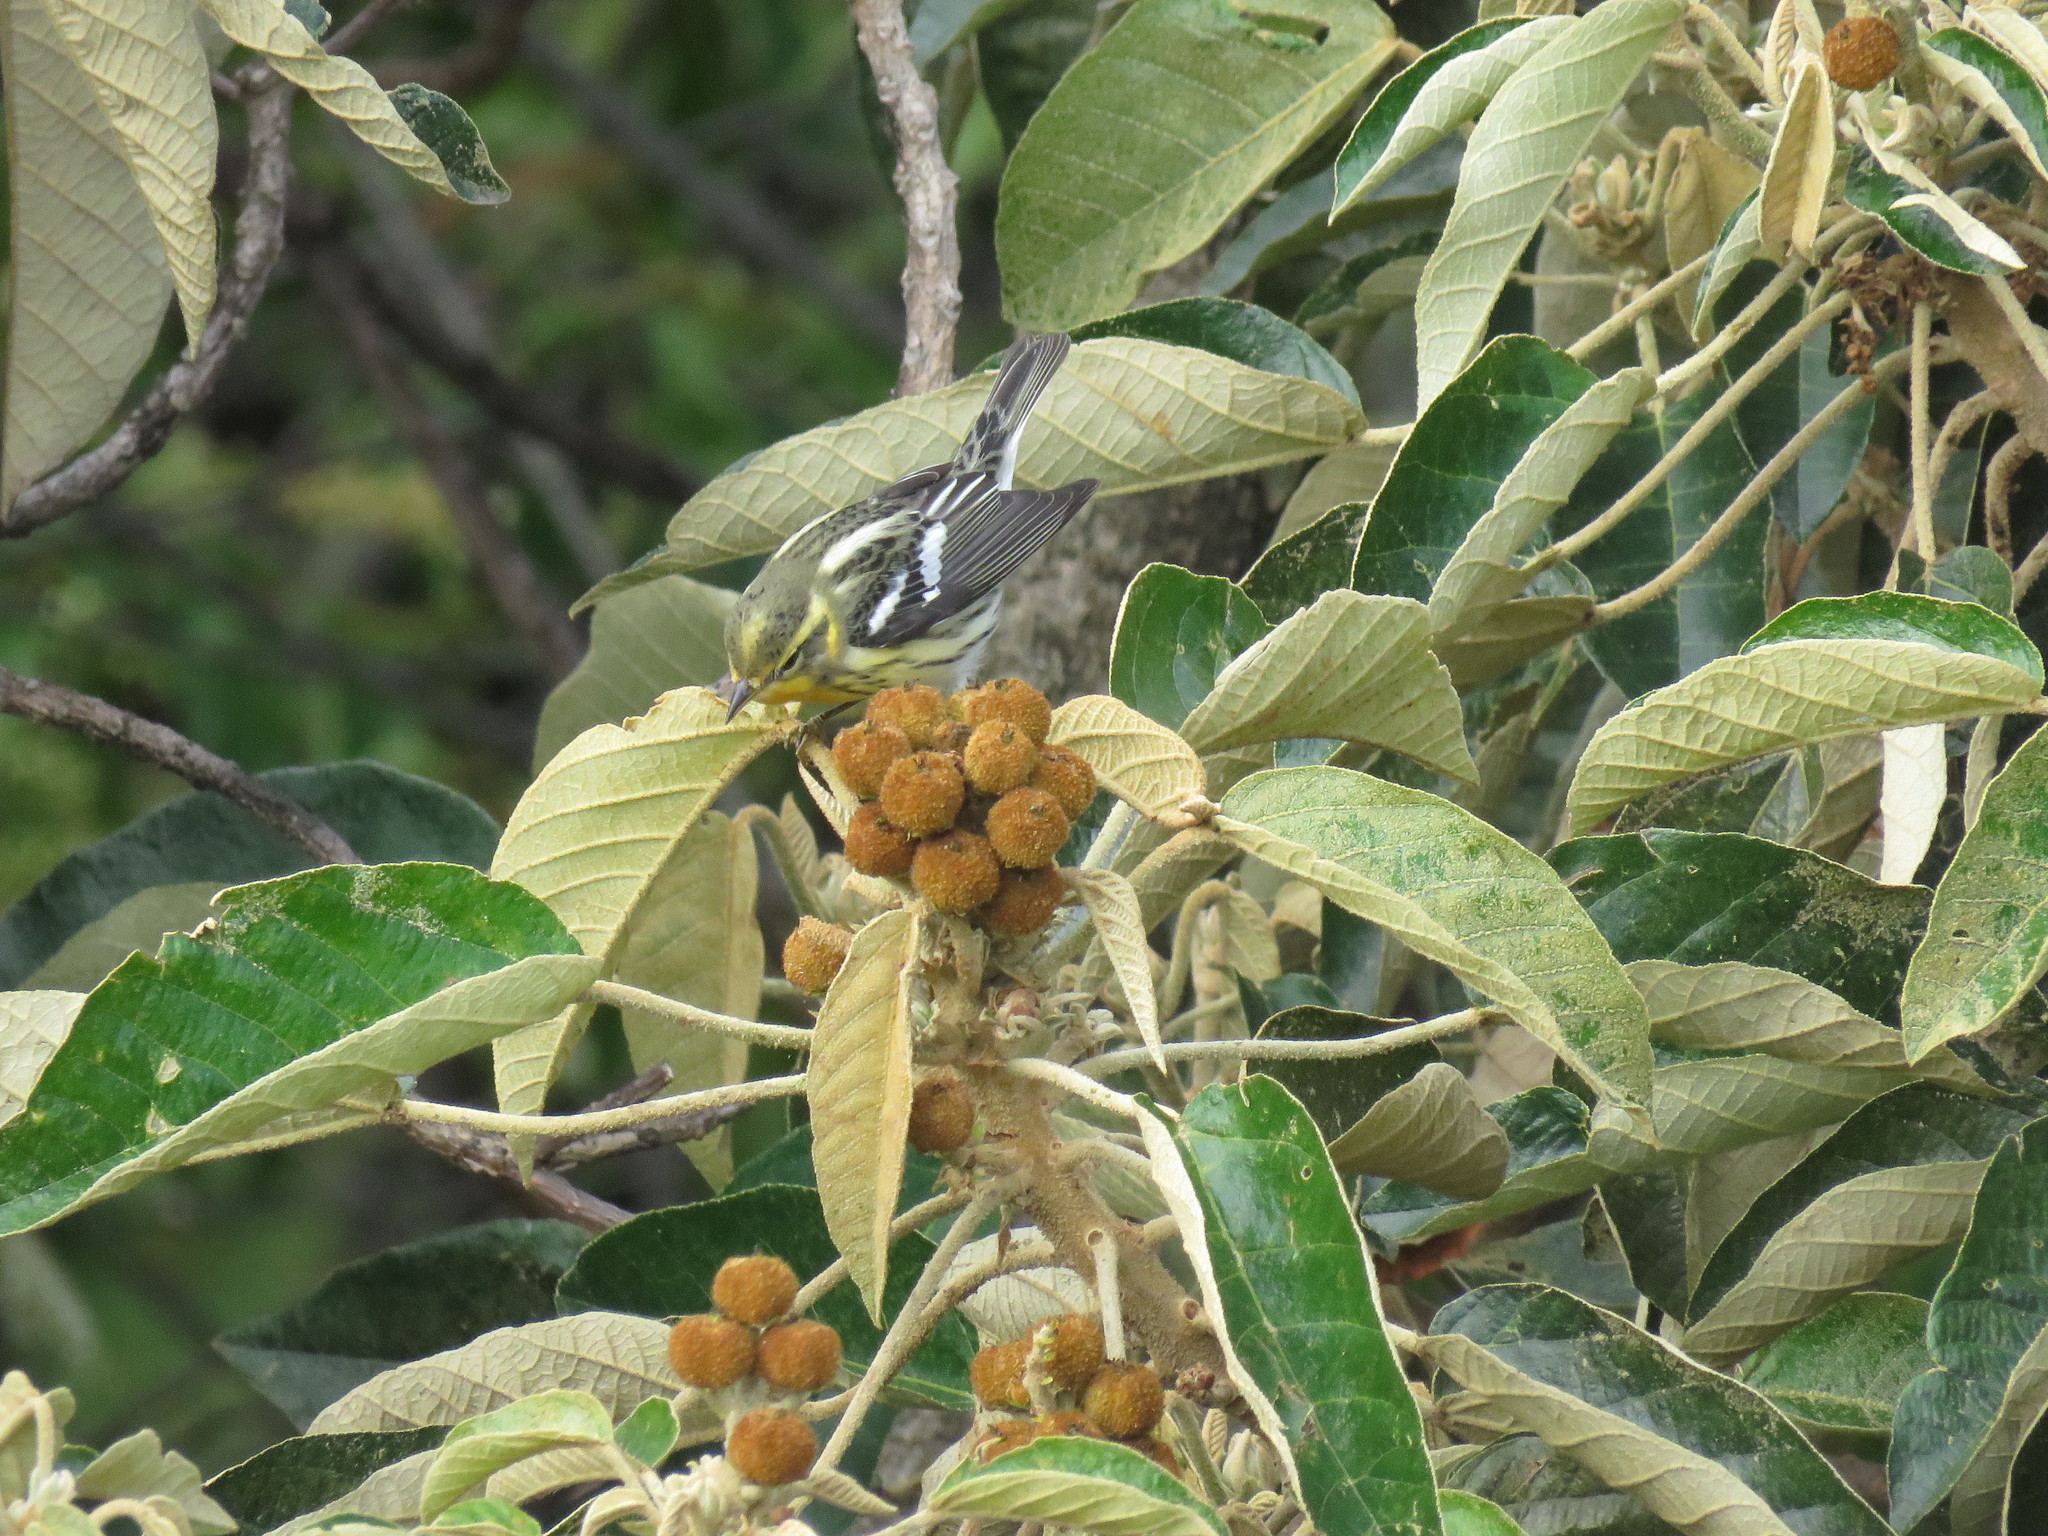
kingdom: Animalia
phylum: Chordata
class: Aves
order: Passeriformes
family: Parulidae
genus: Setophaga
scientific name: Setophaga fusca
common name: Blackburnian warbler
